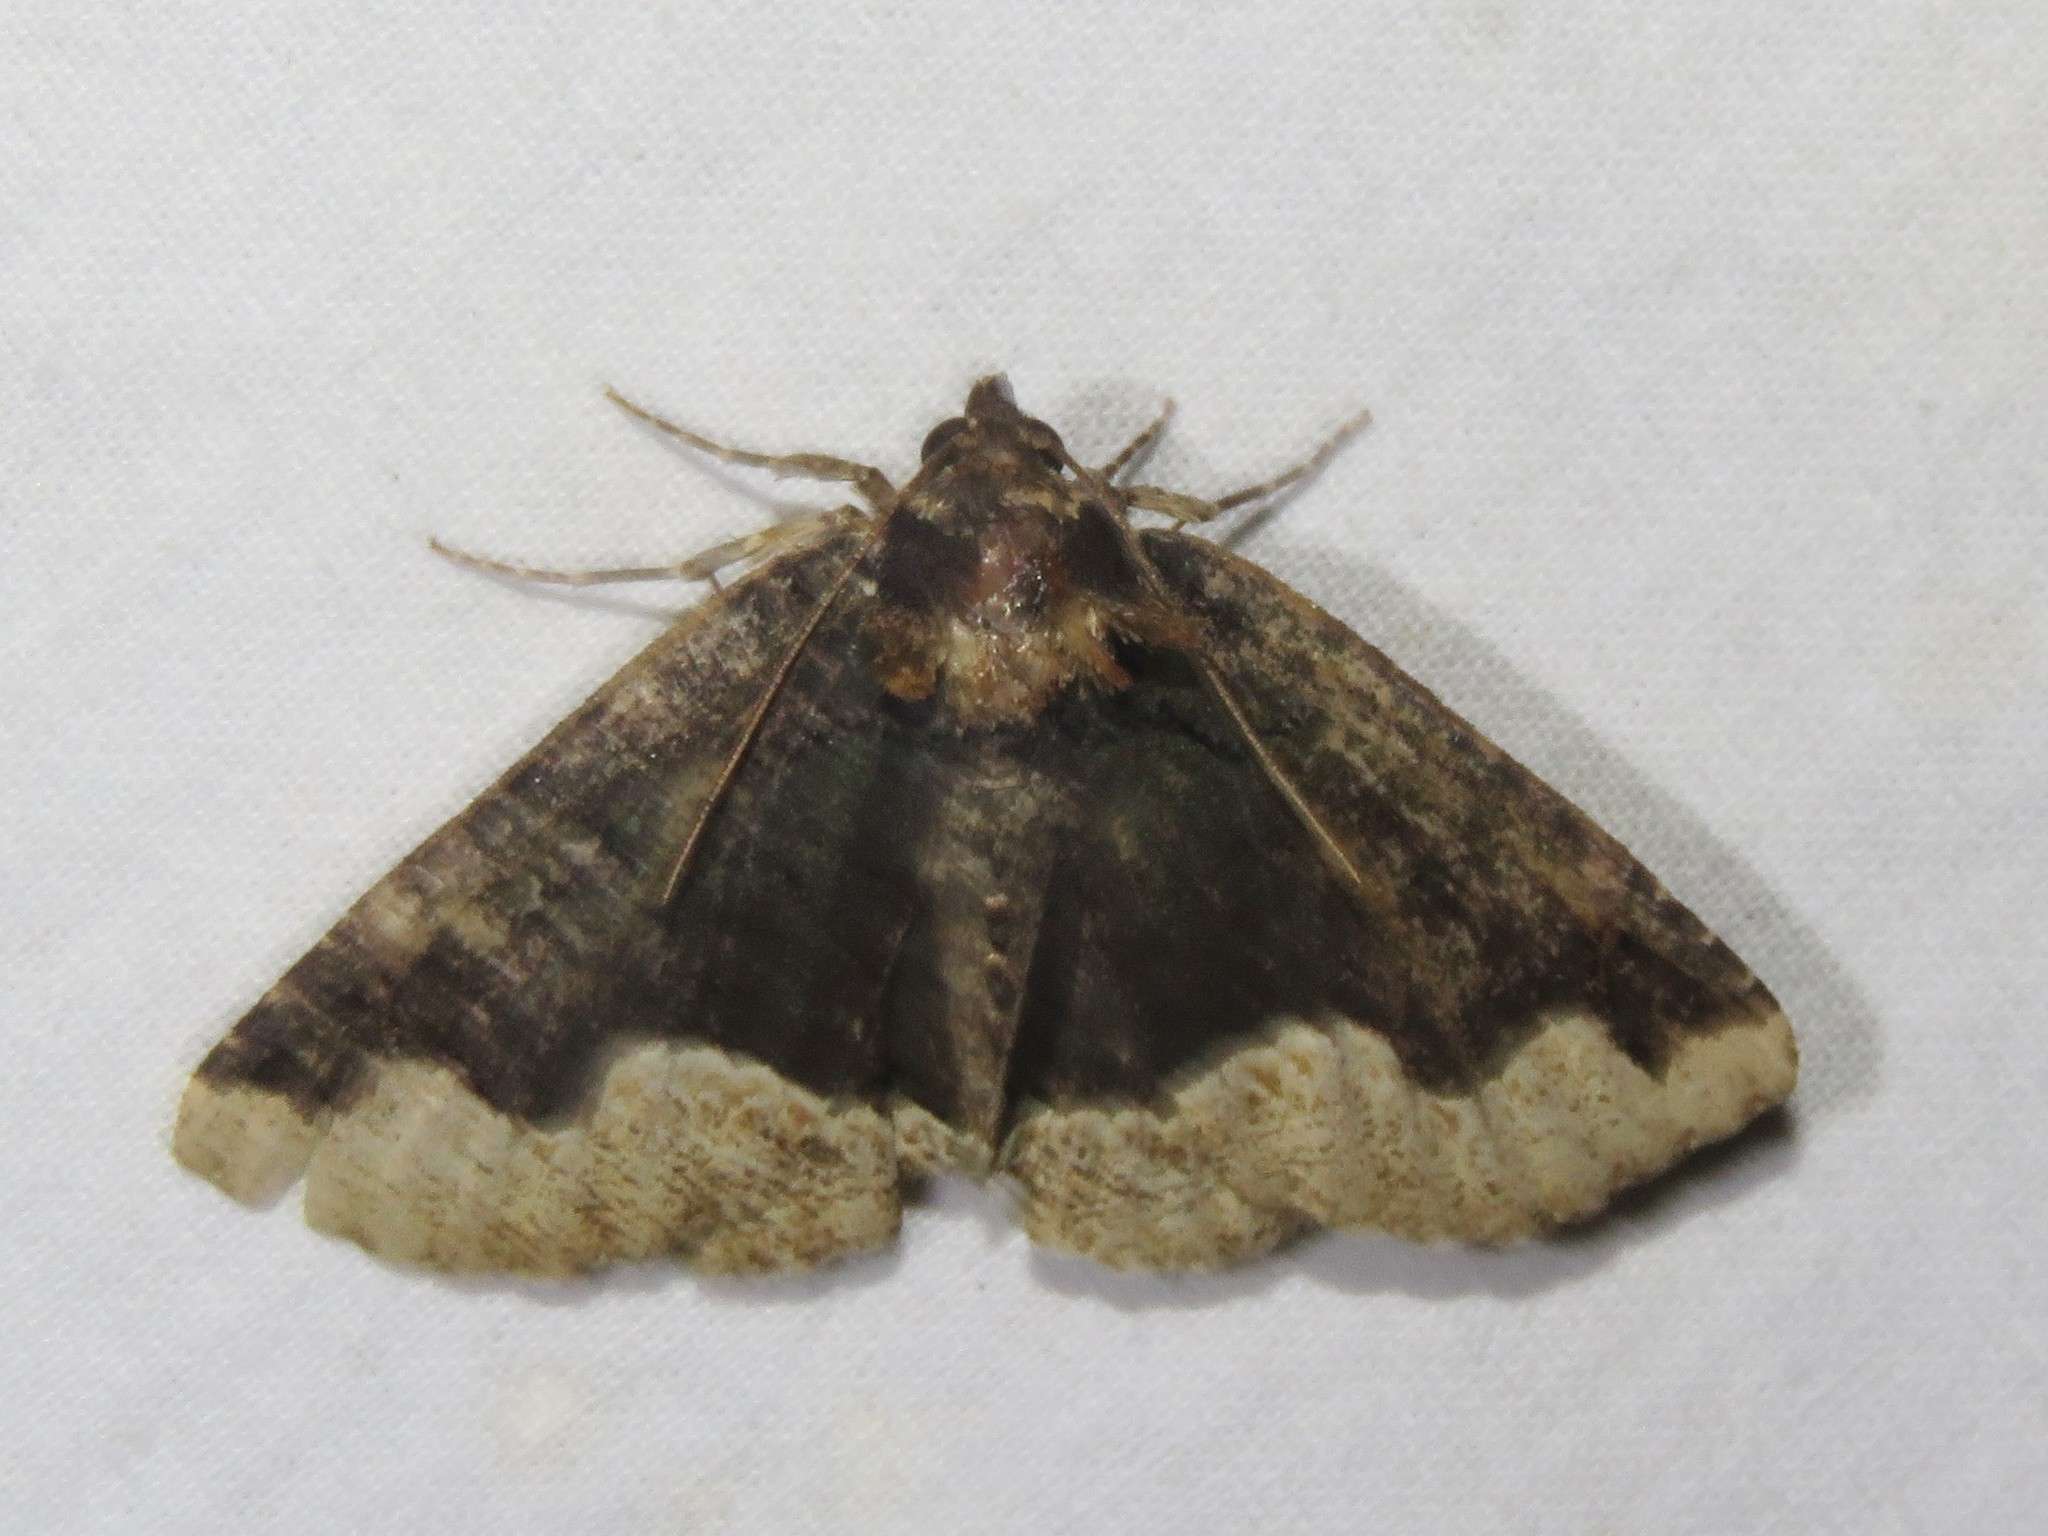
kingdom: Animalia
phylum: Arthropoda
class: Insecta
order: Lepidoptera
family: Erebidae
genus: Zale
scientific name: Zale horrida
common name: Horrid zale moth
